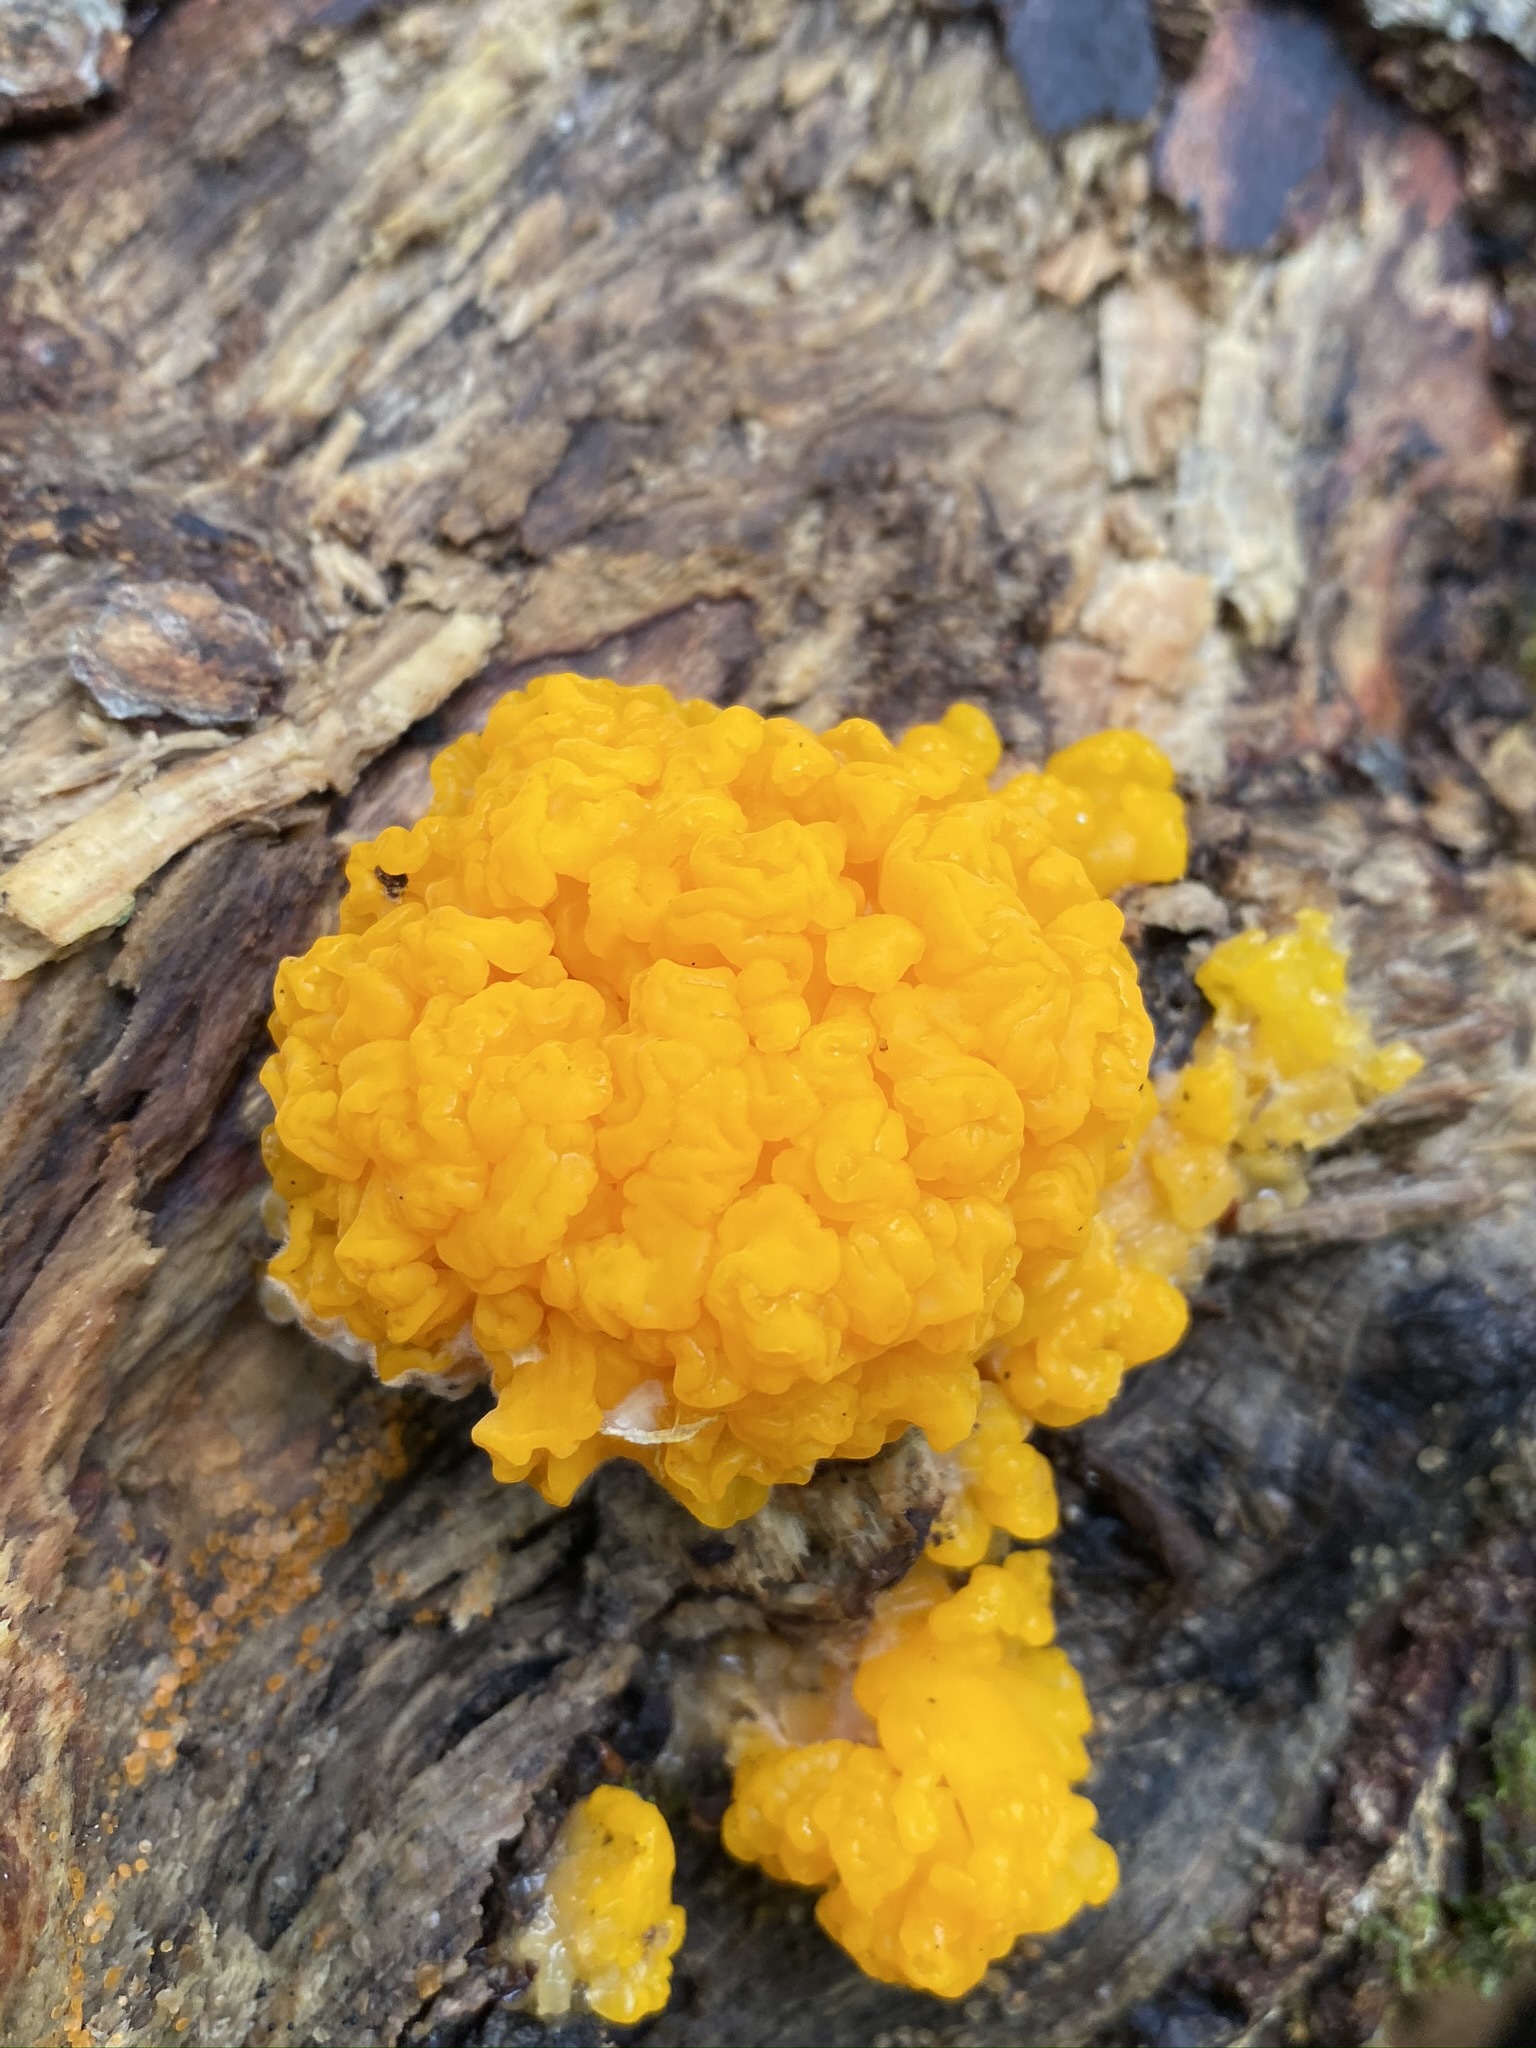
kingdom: Fungi
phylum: Basidiomycota
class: Dacrymycetes
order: Dacrymycetales
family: Dacrymycetaceae
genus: Dacrymyces
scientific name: Dacrymyces chrysospermus
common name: Orange jelly spot
